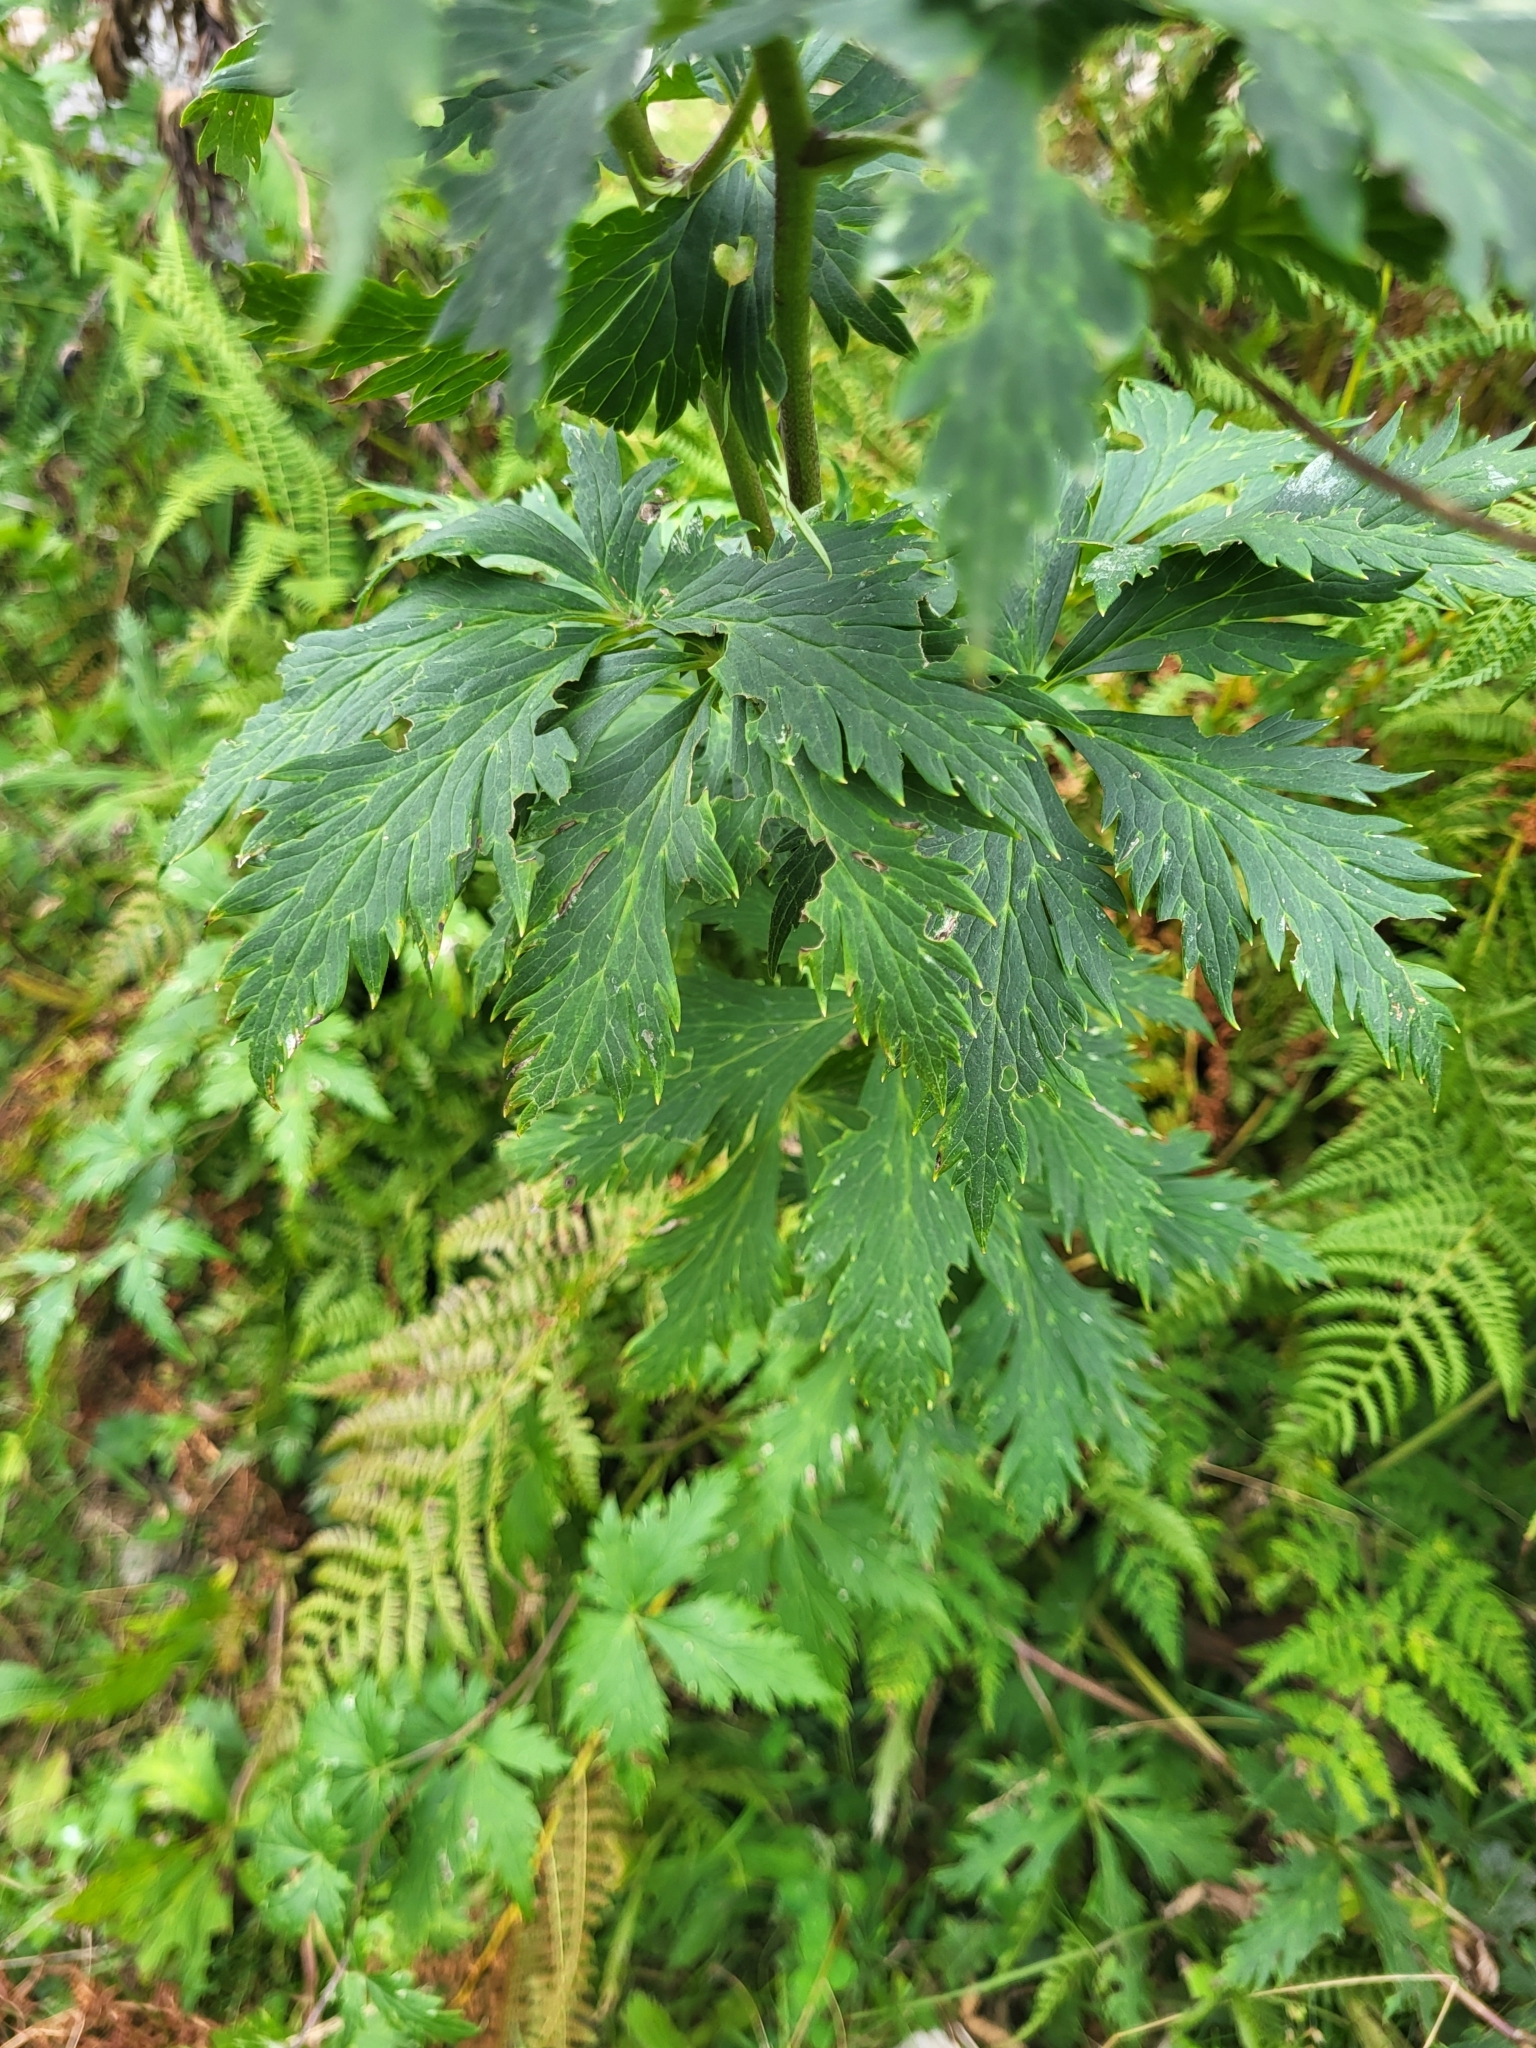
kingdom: Plantae
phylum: Tracheophyta
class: Magnoliopsida
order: Ranunculales
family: Ranunculaceae
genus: Aconitum
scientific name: Aconitum degenii
